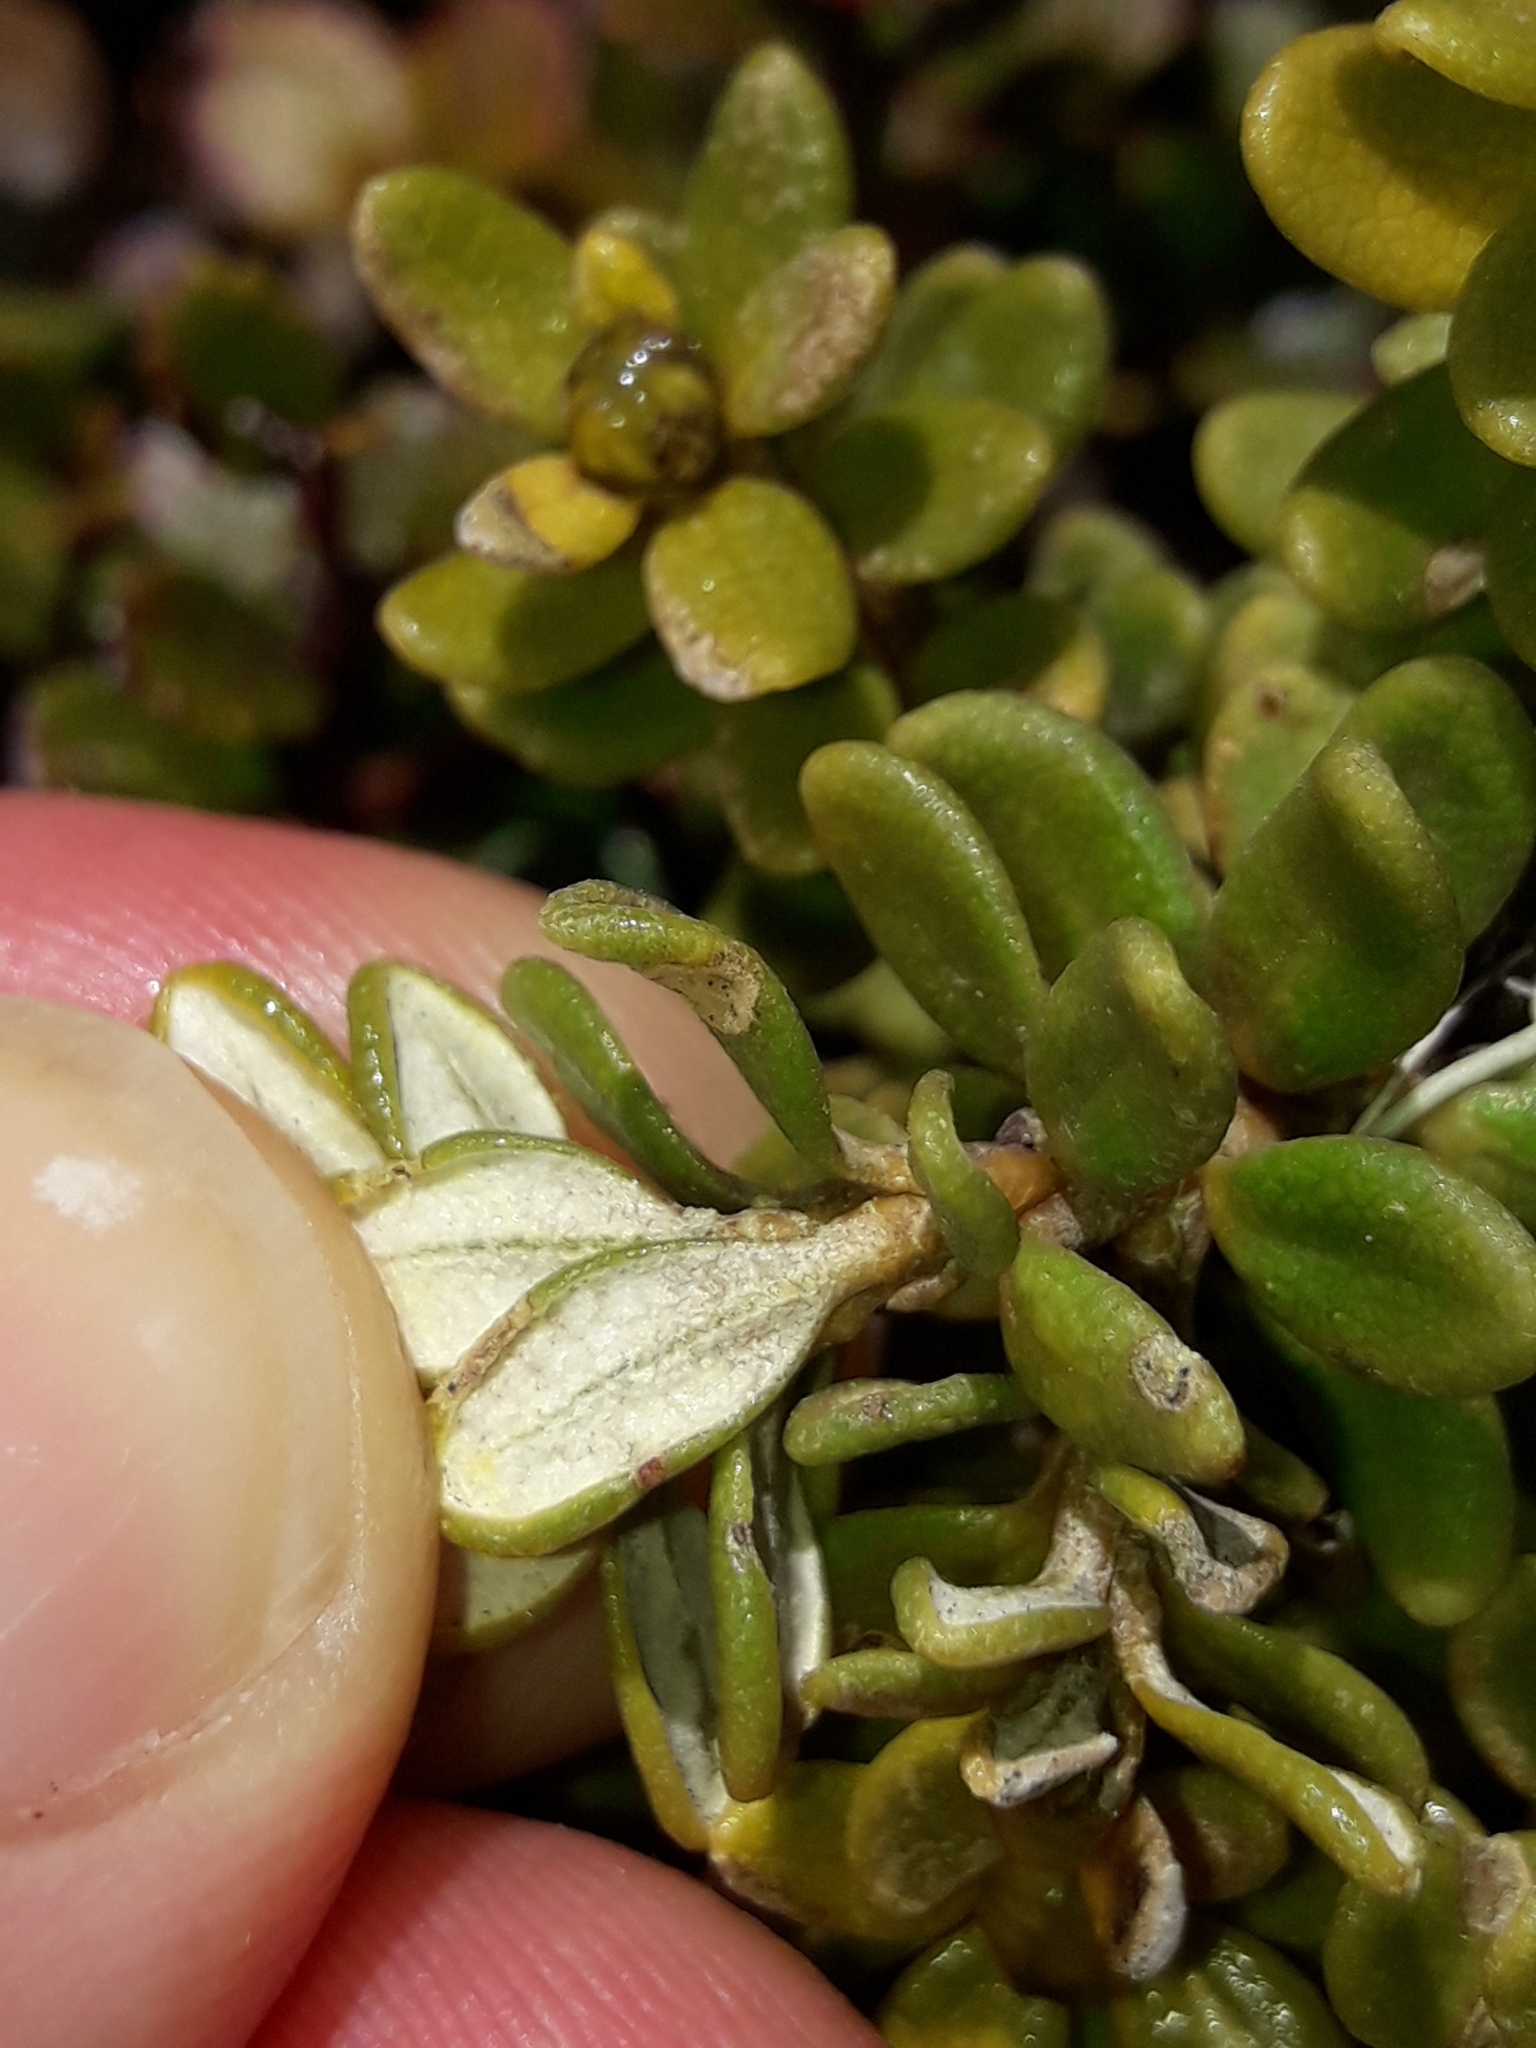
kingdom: Plantae
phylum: Tracheophyta
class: Magnoliopsida
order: Asterales
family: Asteraceae
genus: Olearia
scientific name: Olearia nummularifolia
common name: Sticky daisybush
